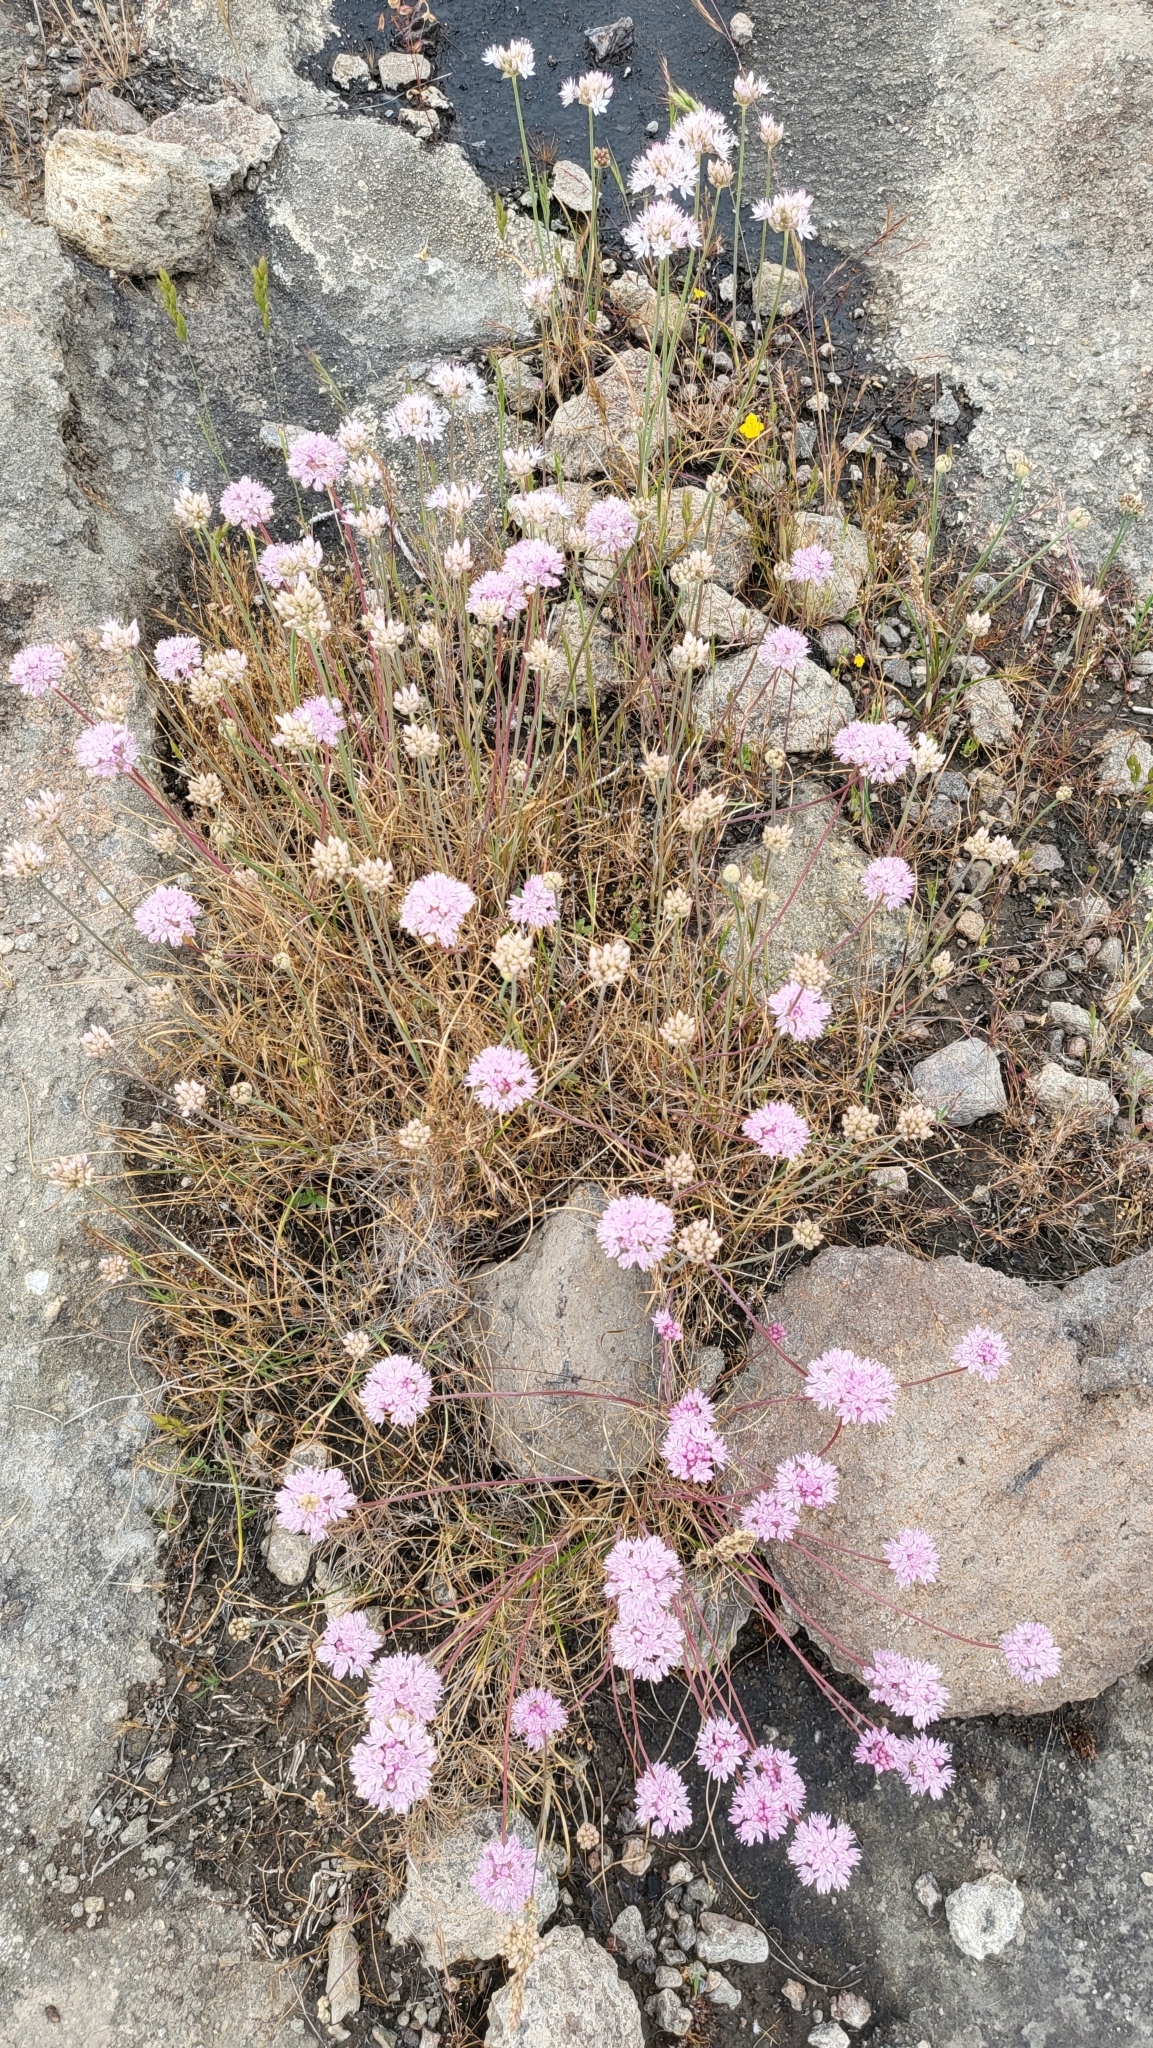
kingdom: Plantae
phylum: Tracheophyta
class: Liliopsida
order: Asparagales
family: Amaryllidaceae
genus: Allium
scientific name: Allium amplectens
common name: Narrow-leaved onion
